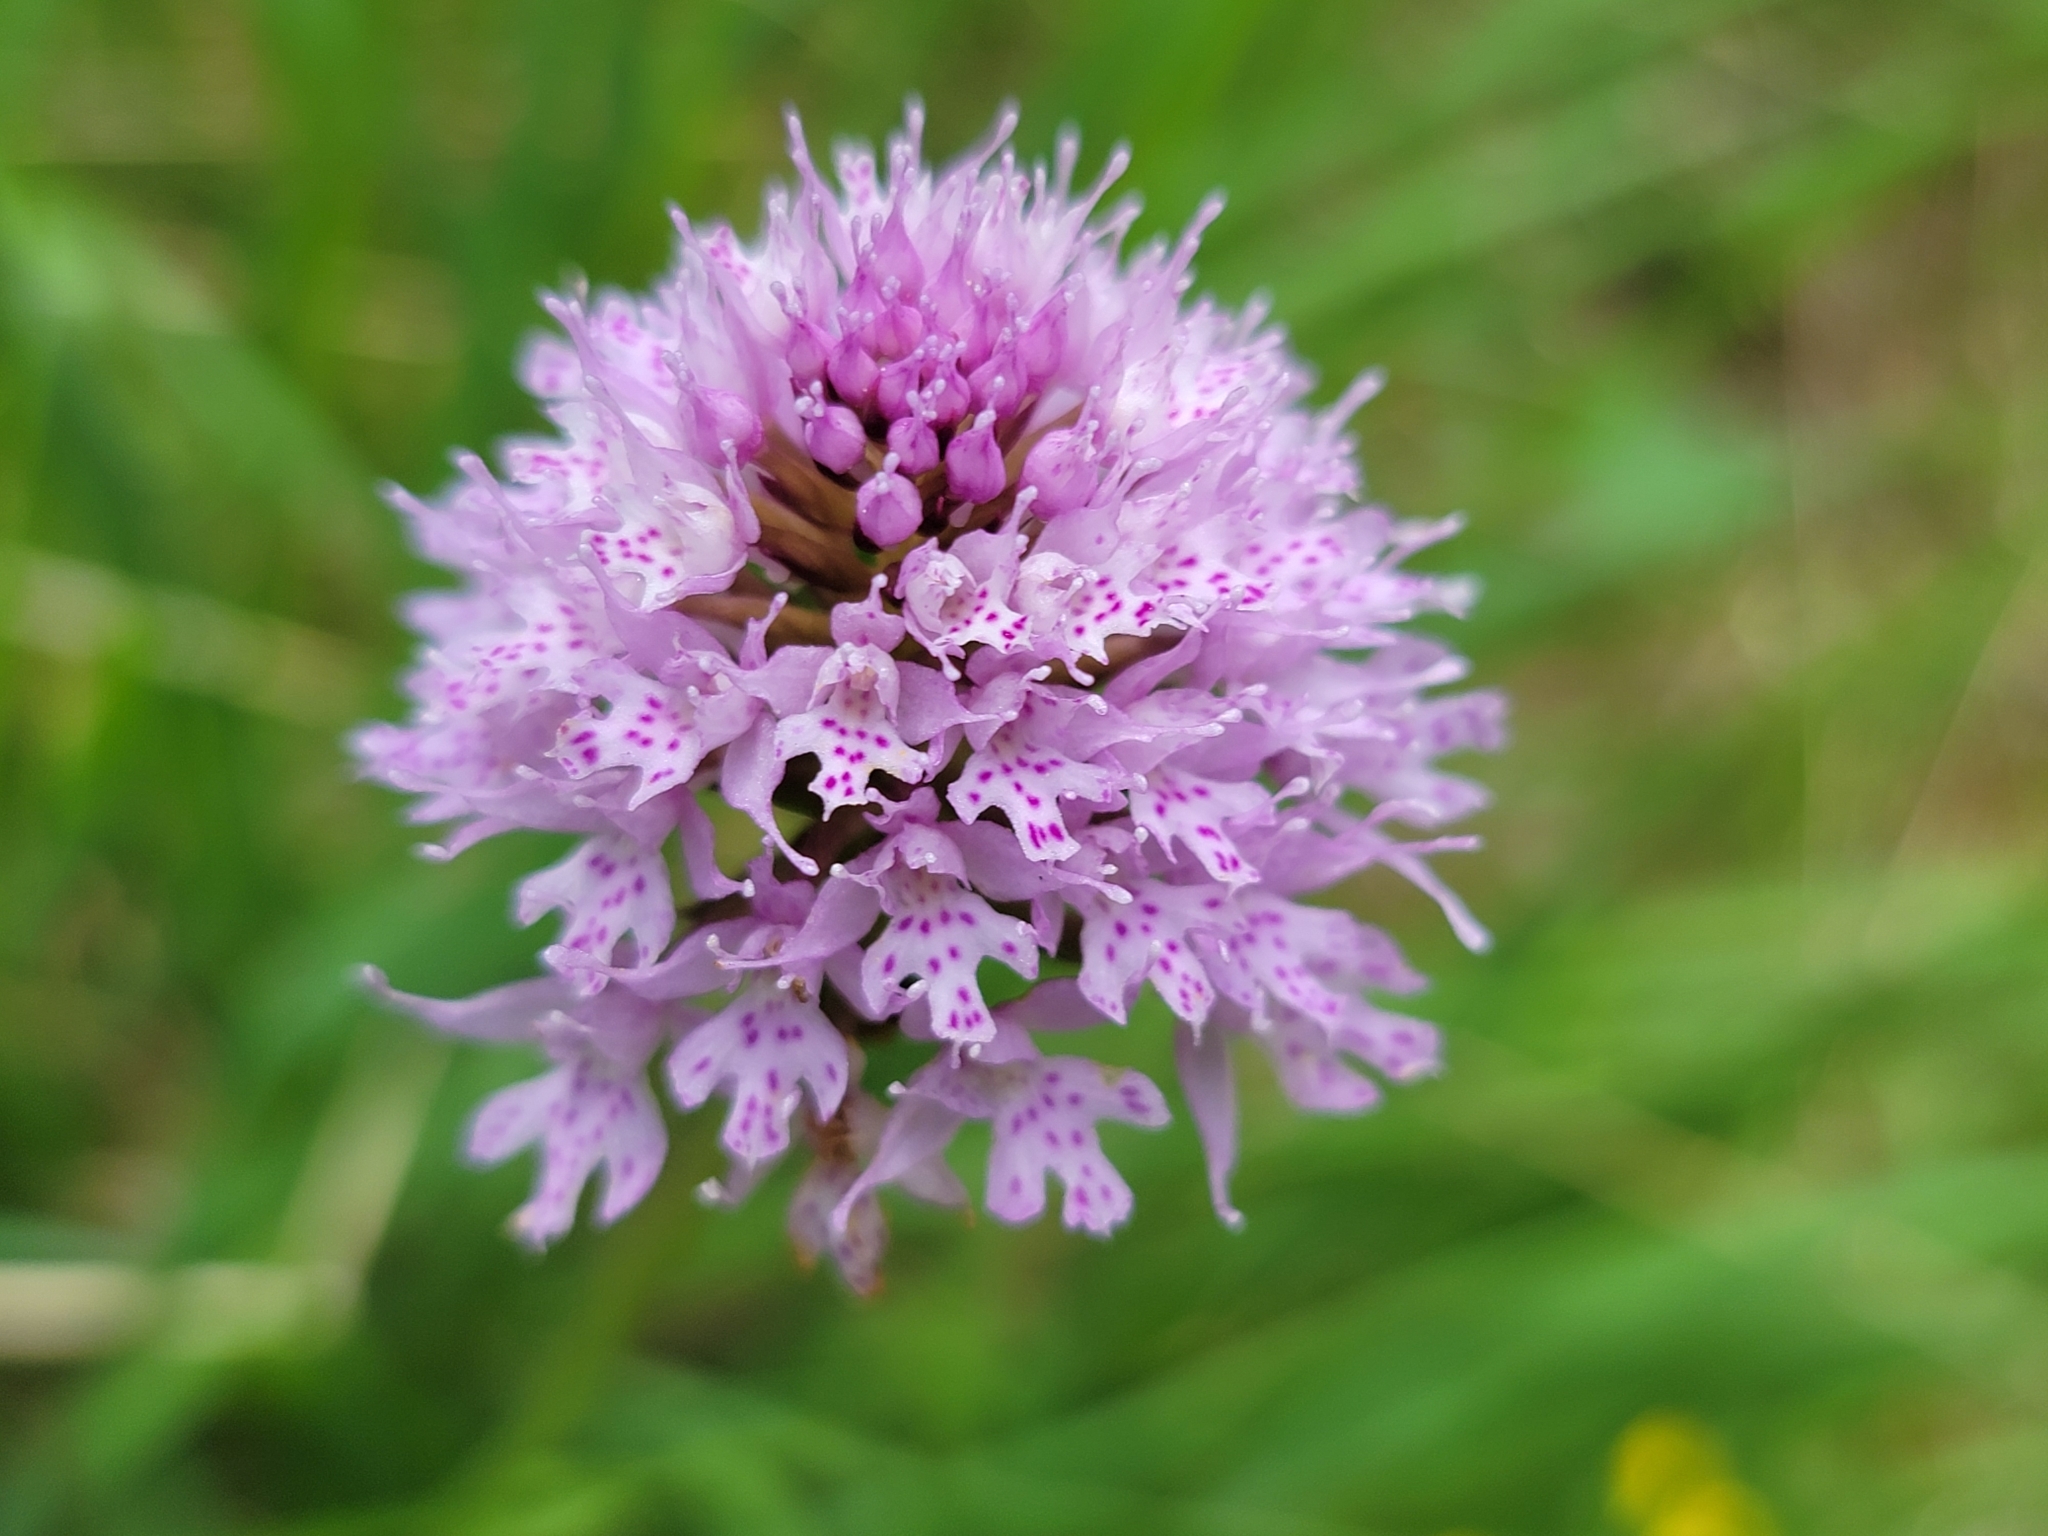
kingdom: Plantae
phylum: Tracheophyta
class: Liliopsida
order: Asparagales
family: Orchidaceae
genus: Traunsteinera
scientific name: Traunsteinera globosa
